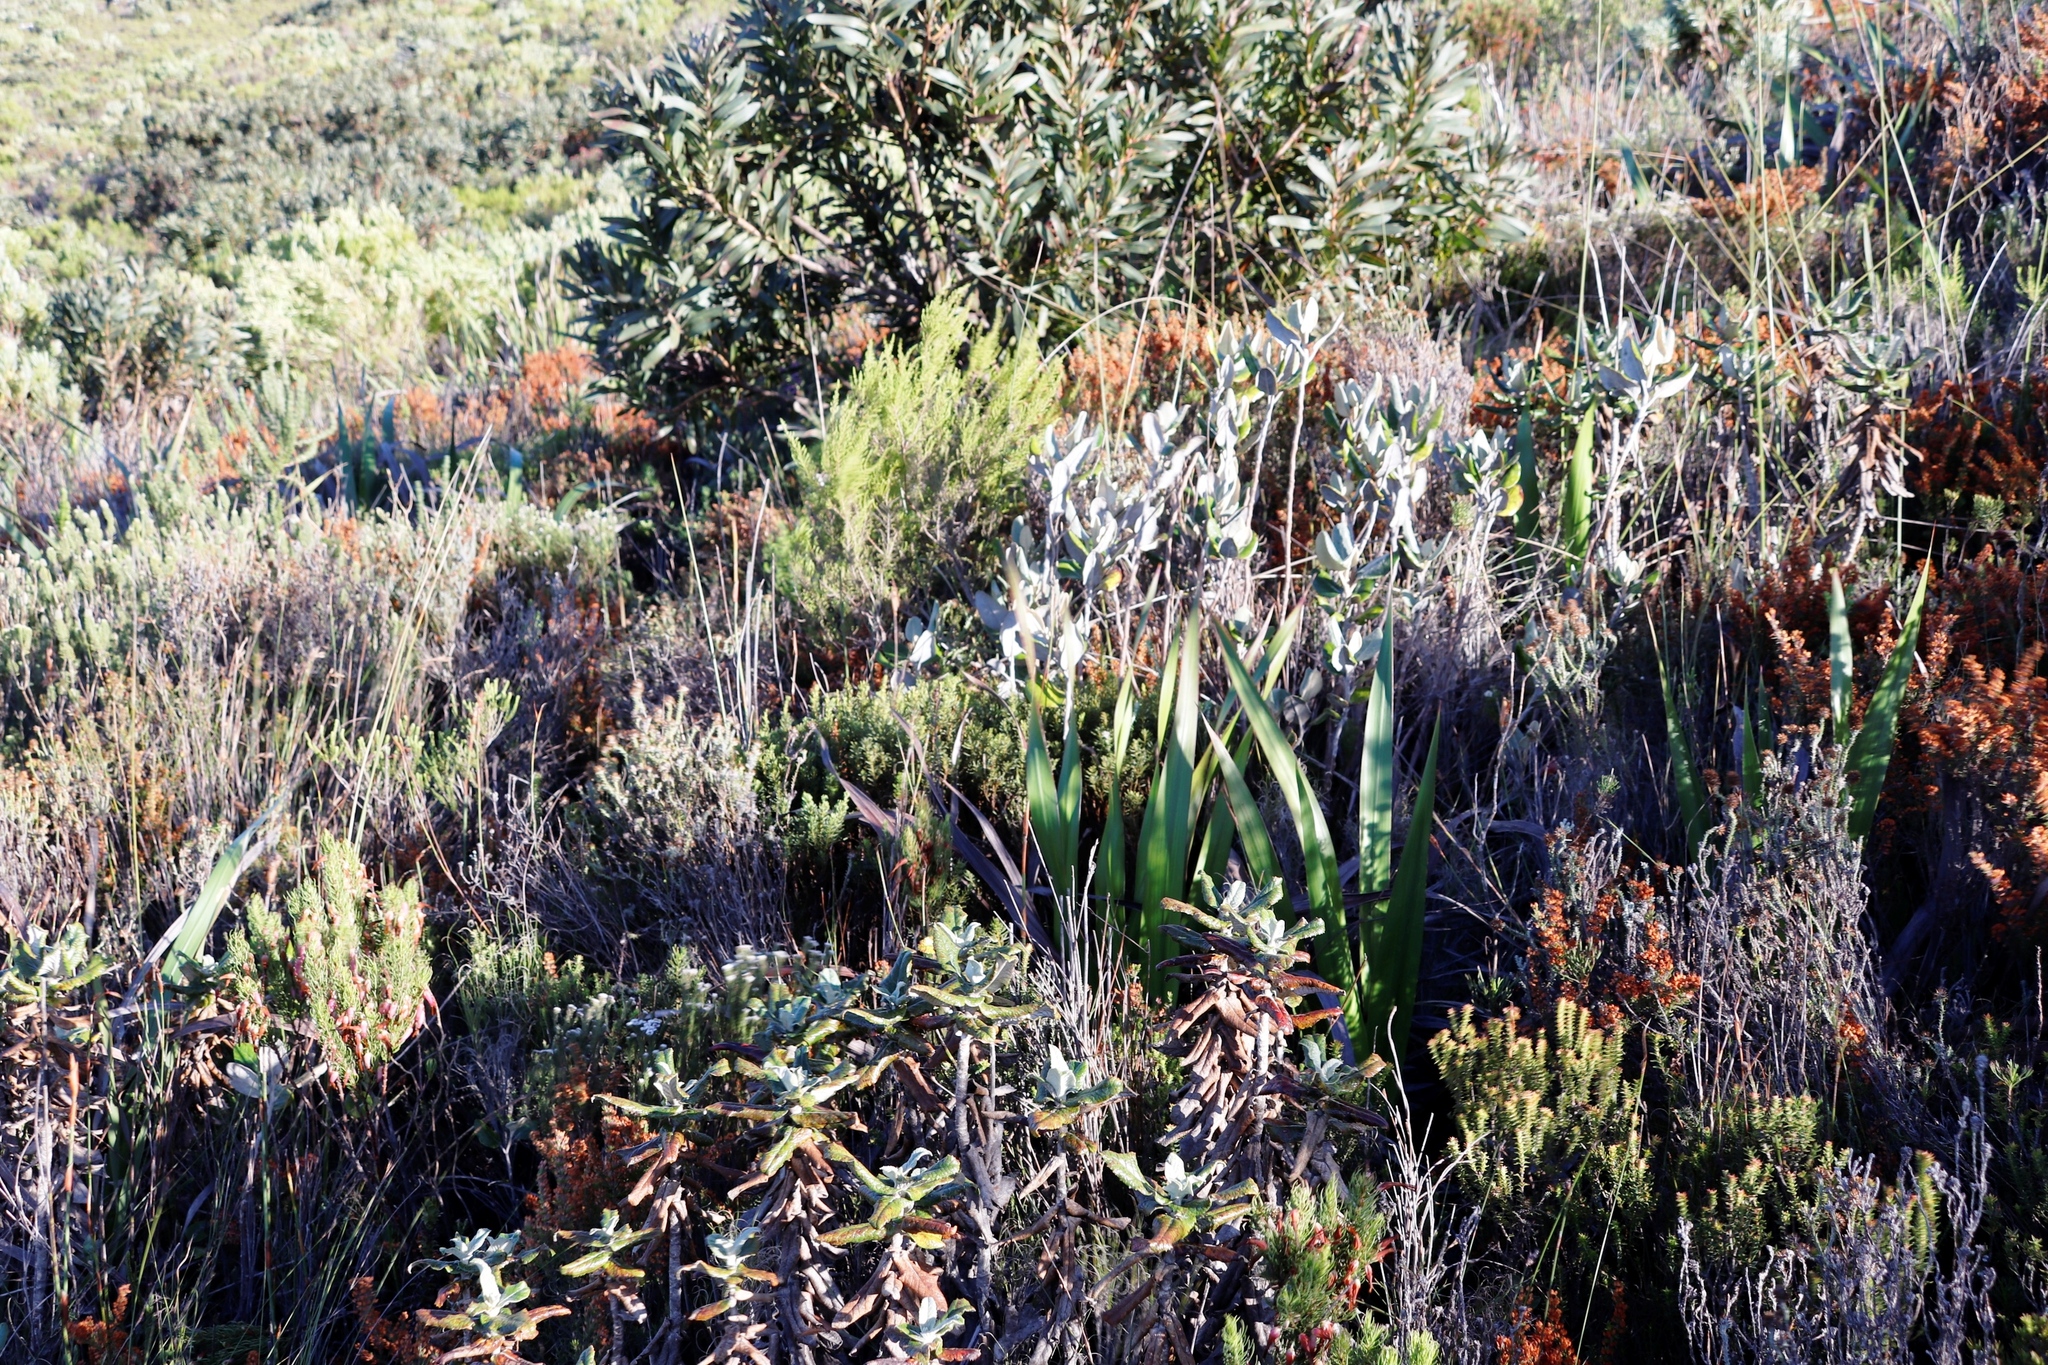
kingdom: Plantae
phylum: Tracheophyta
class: Magnoliopsida
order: Apiales
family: Apiaceae
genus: Hermas
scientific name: Hermas villosa
